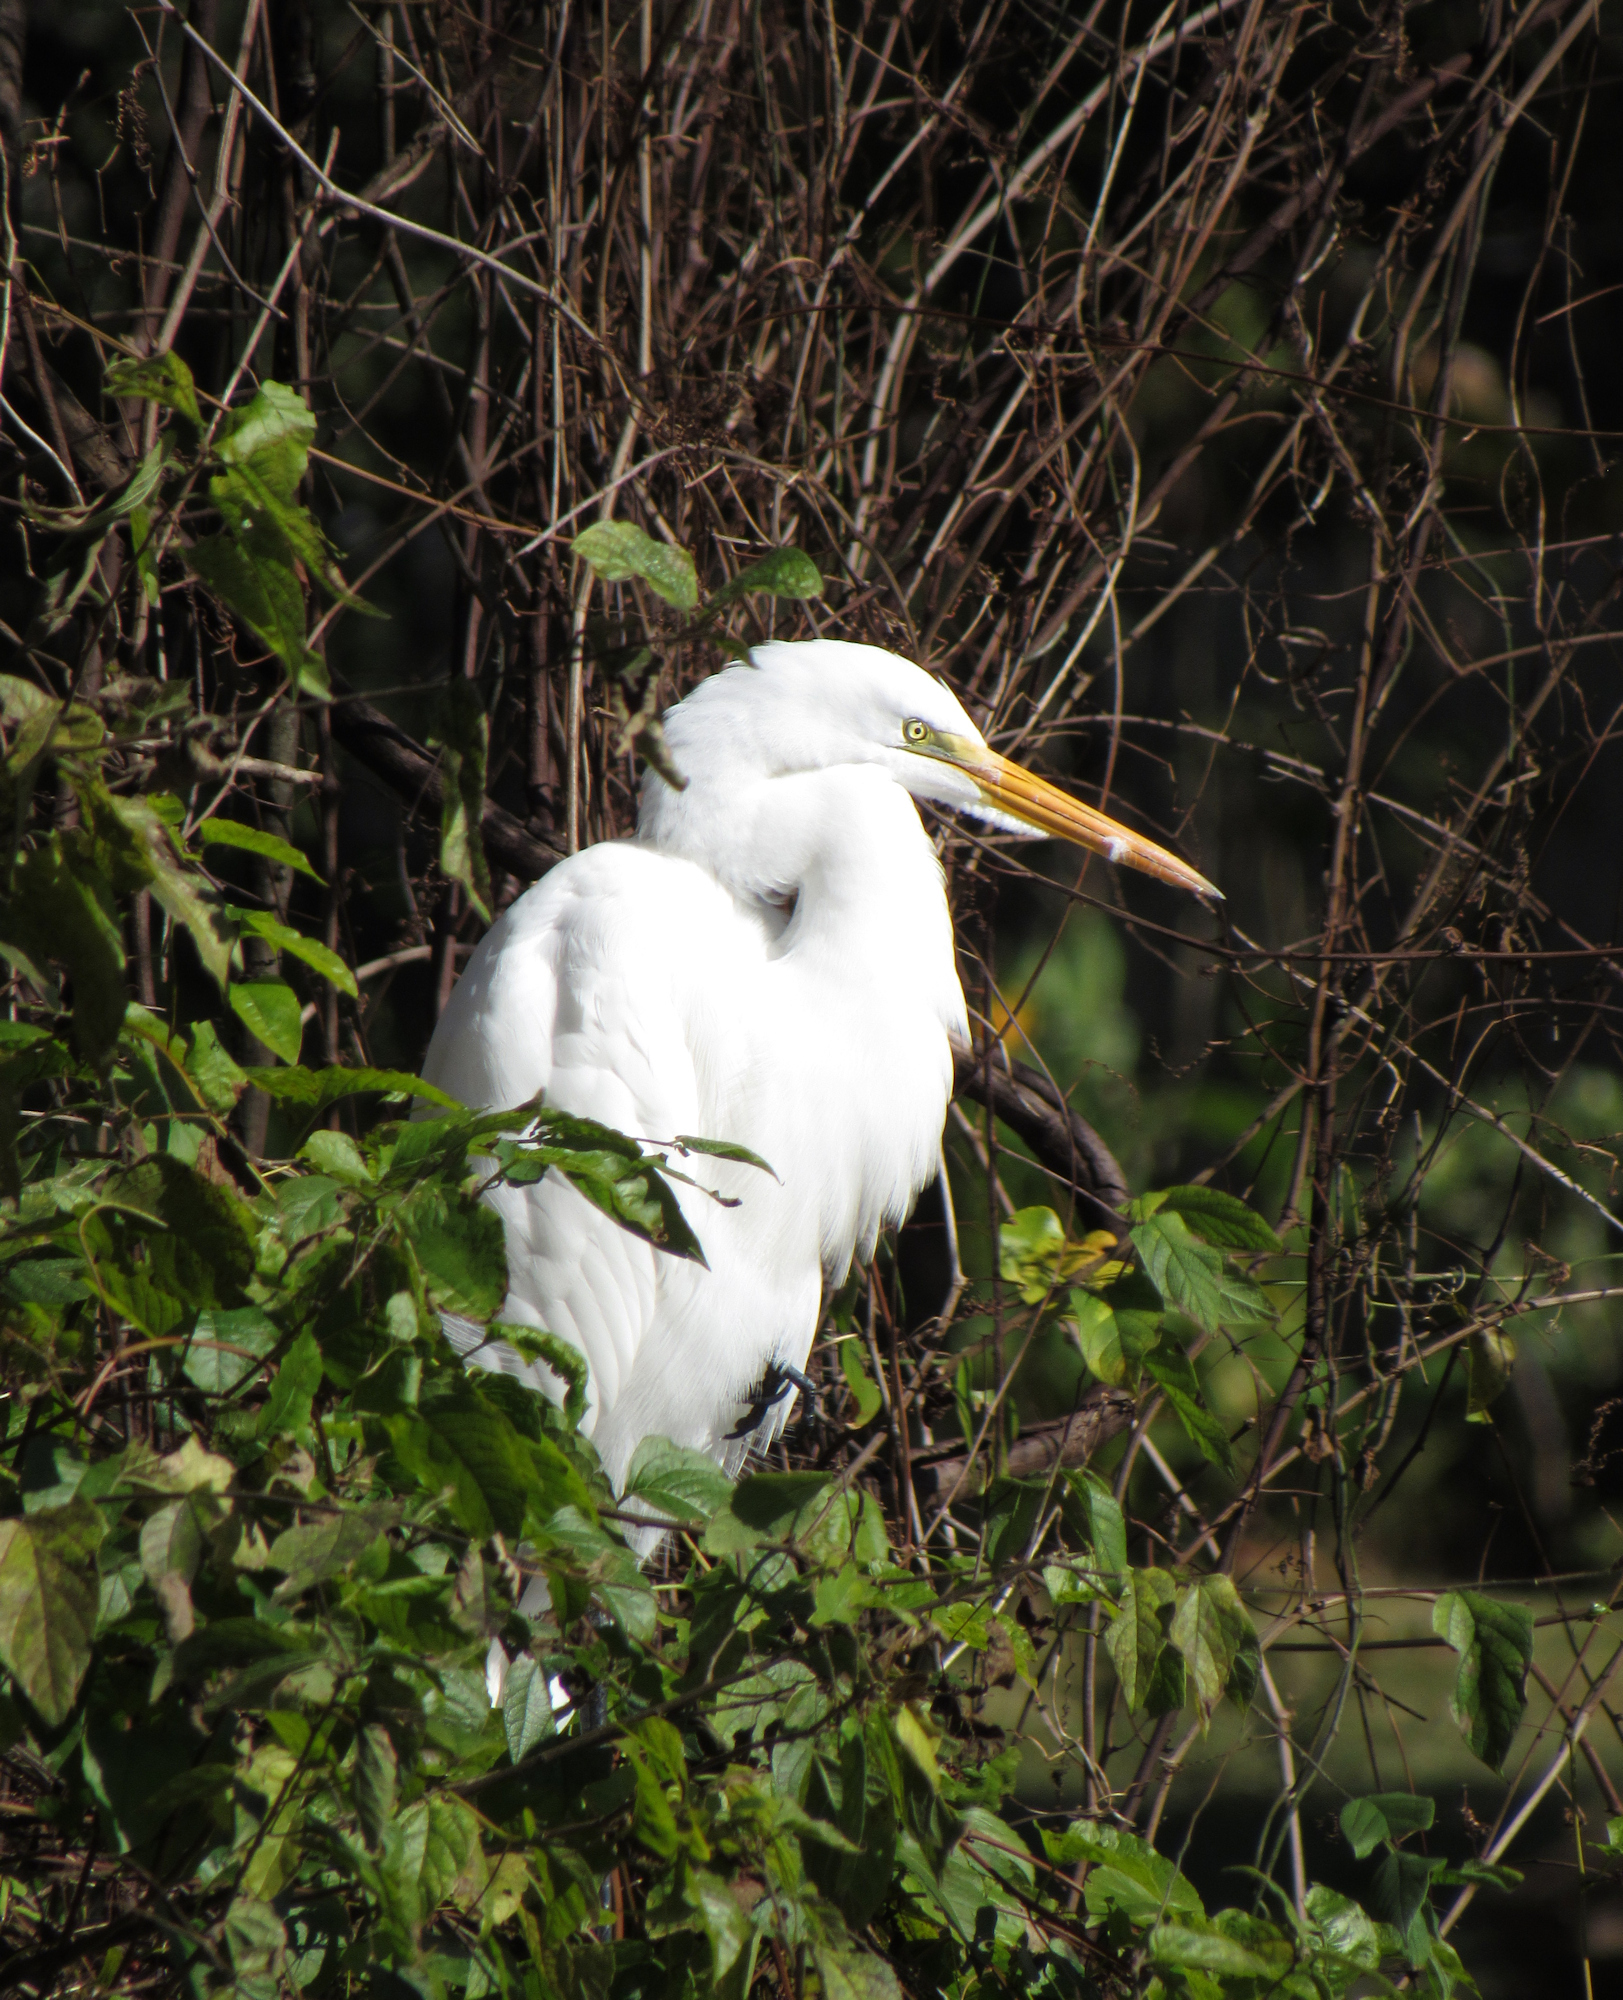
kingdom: Animalia
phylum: Chordata
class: Aves
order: Pelecaniformes
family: Ardeidae
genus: Ardea
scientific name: Ardea alba
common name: Great egret
